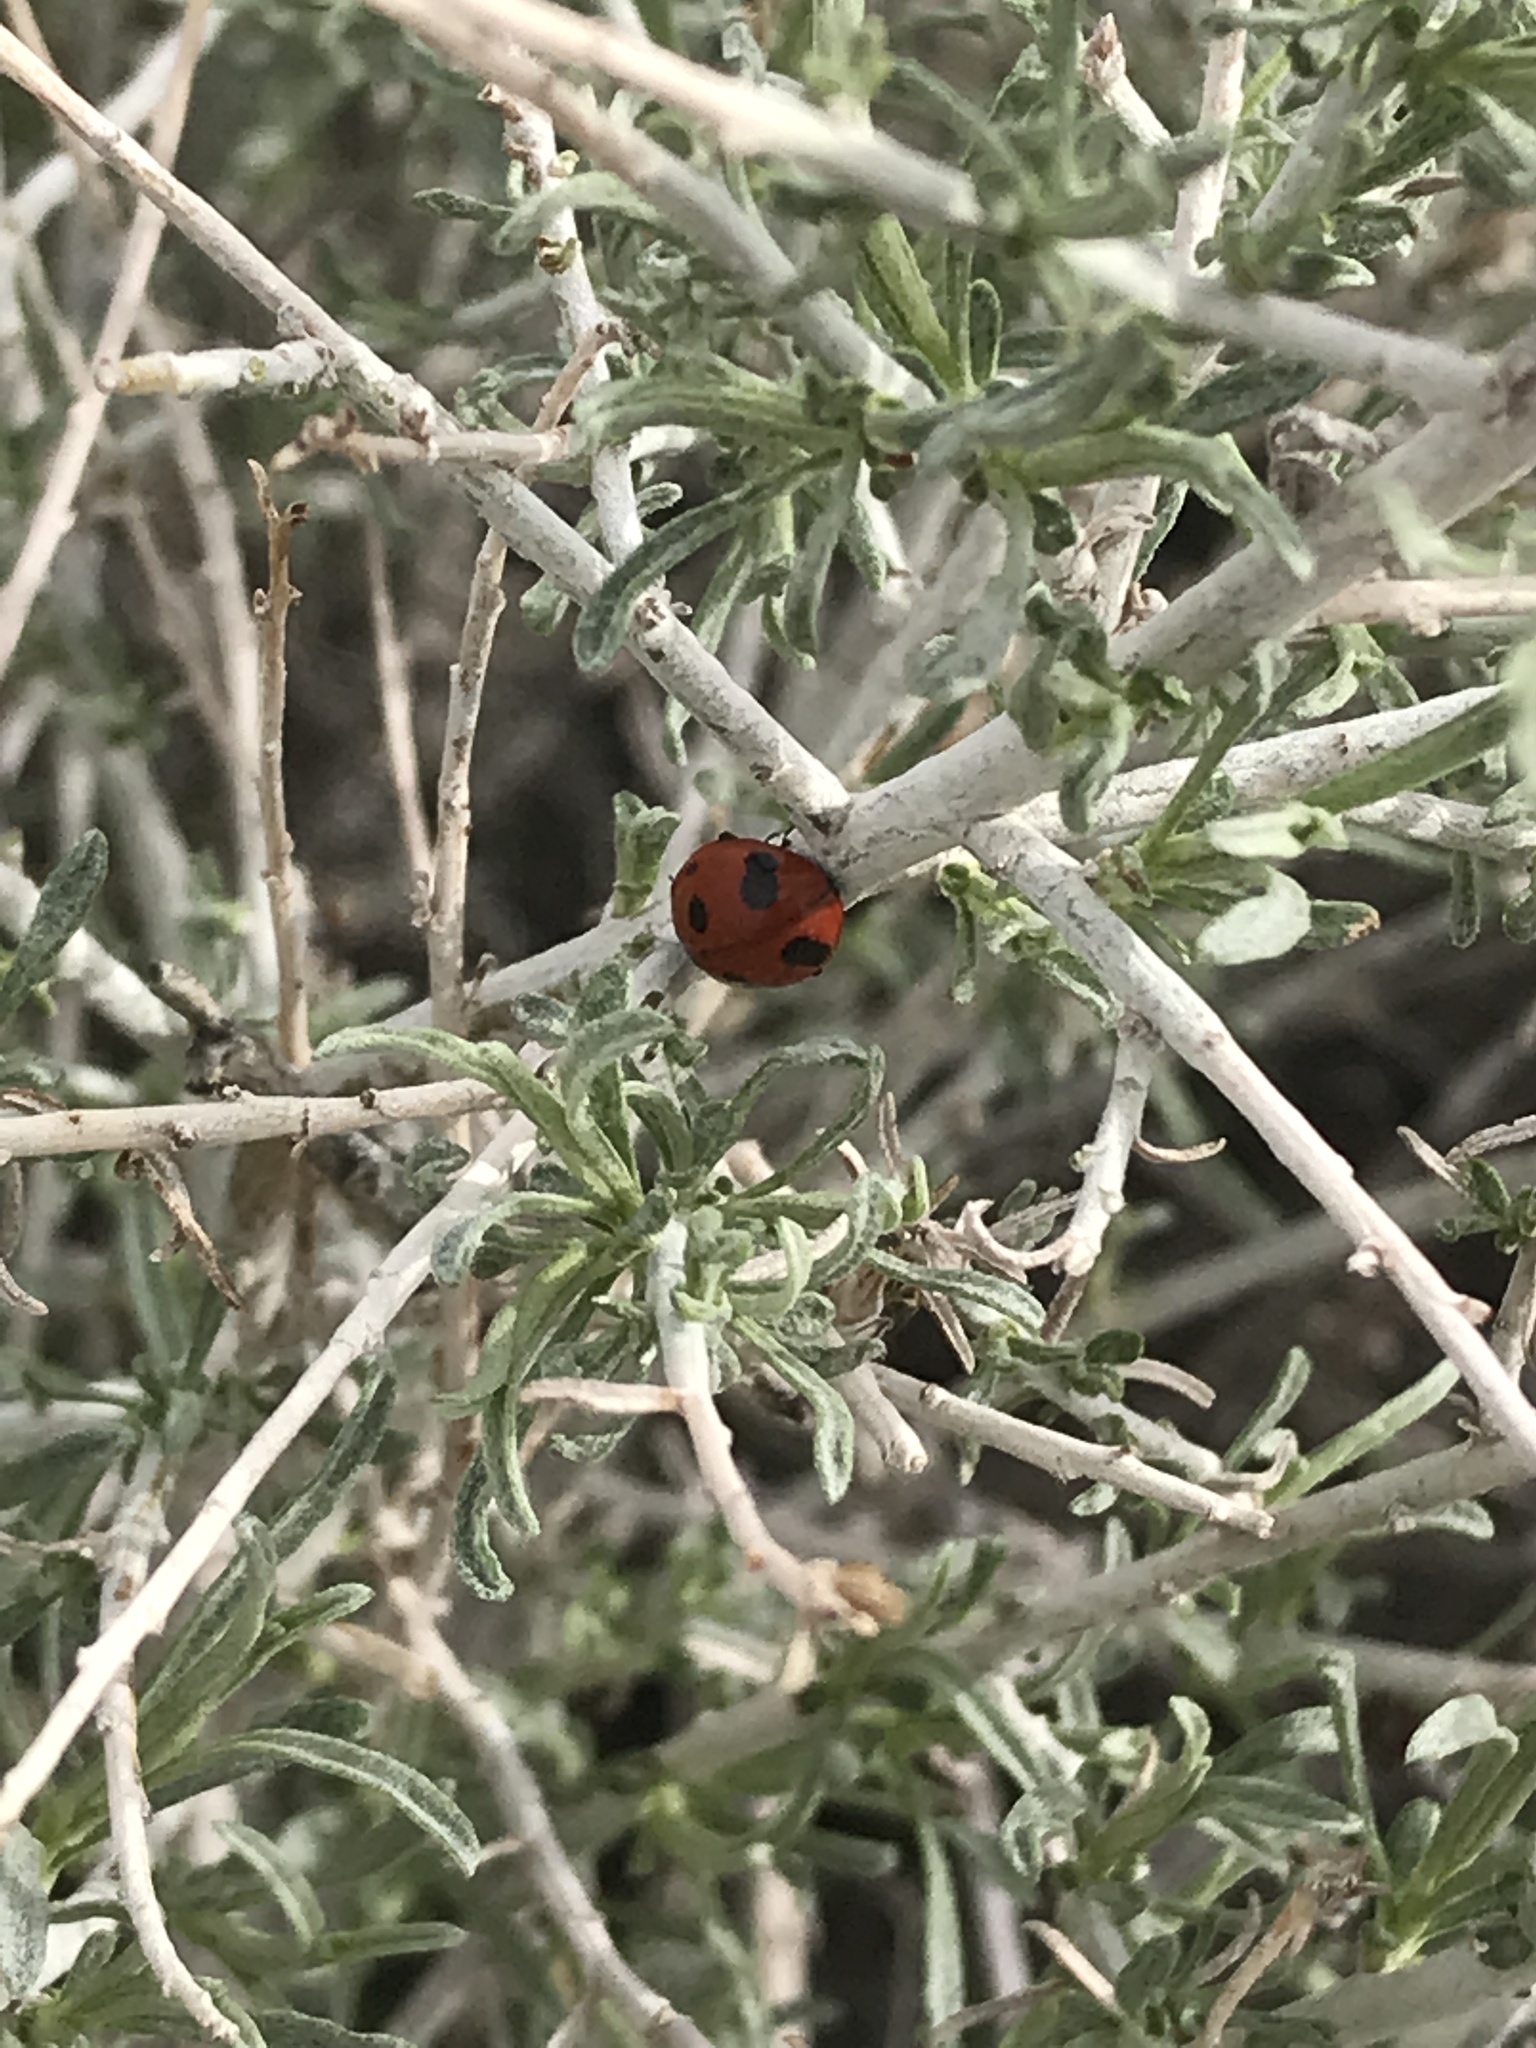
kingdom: Animalia
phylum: Arthropoda
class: Insecta
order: Coleoptera
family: Coccinellidae
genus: Coccinella
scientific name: Coccinella septempunctata
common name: Sevenspotted lady beetle
